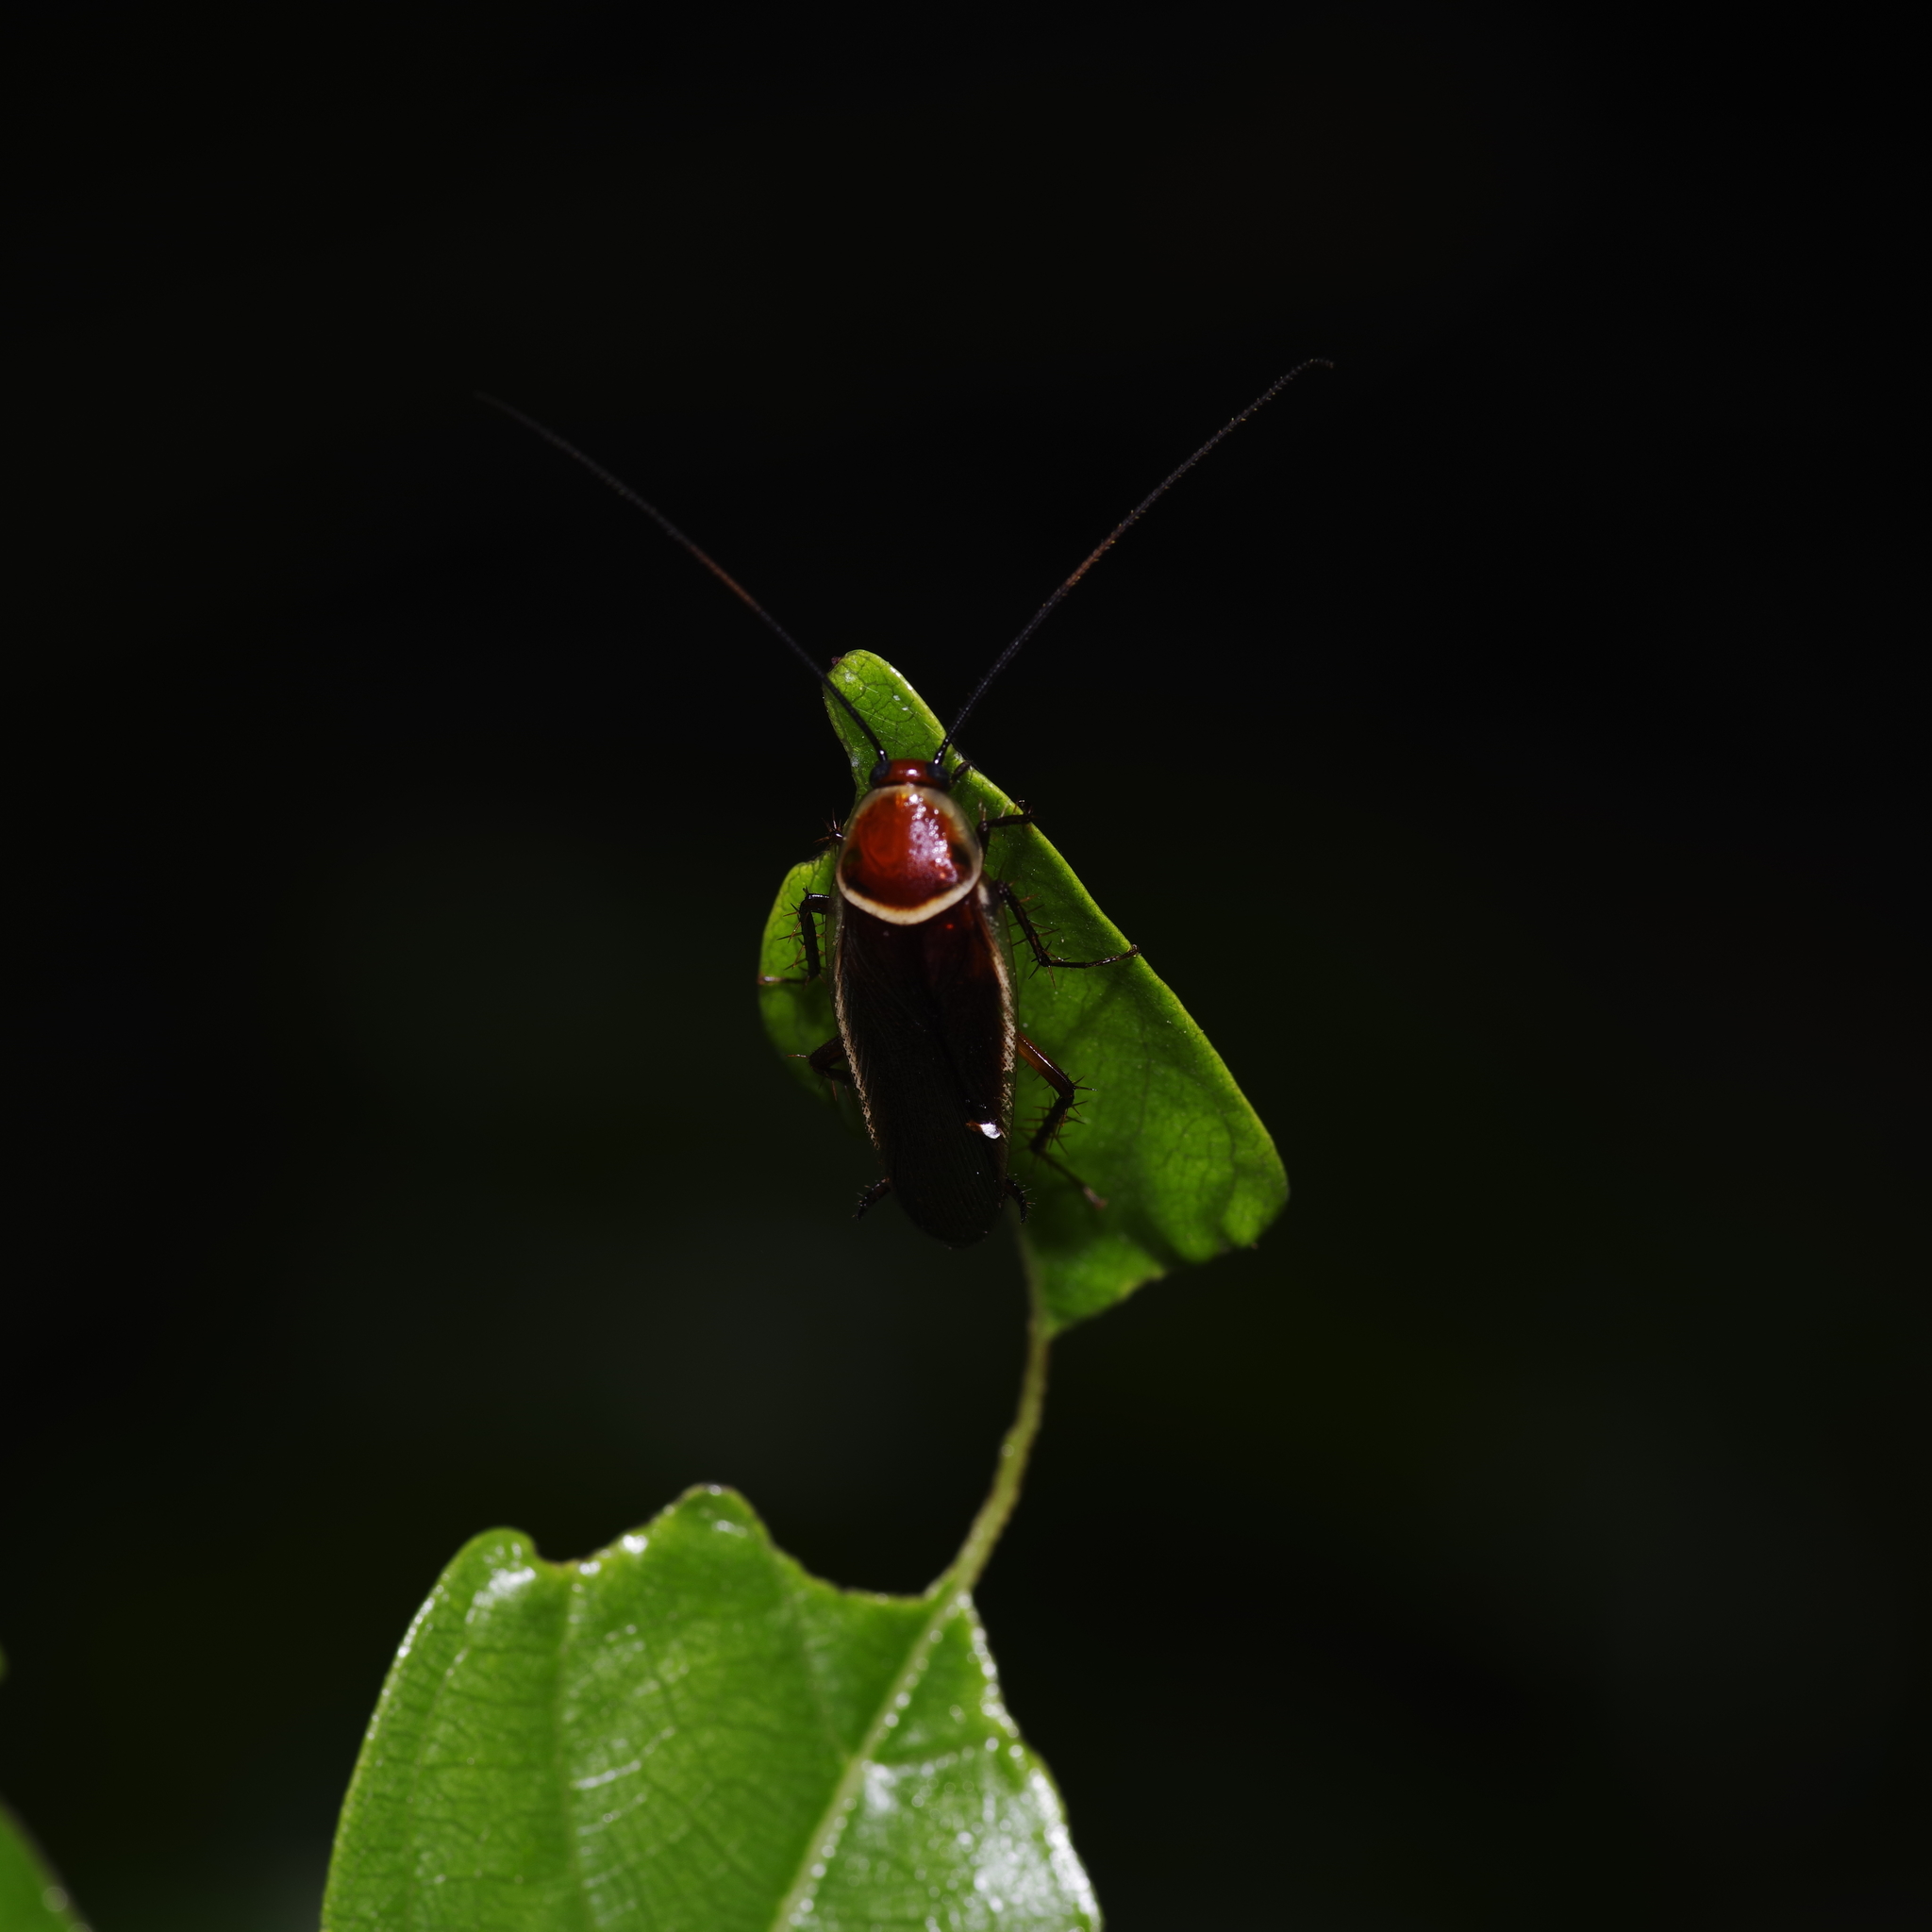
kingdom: Animalia
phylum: Arthropoda
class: Insecta
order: Blattodea
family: Ectobiidae
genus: Pseudomops
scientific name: Pseudomops septentrionalis
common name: Pale-bordered field cockroach
